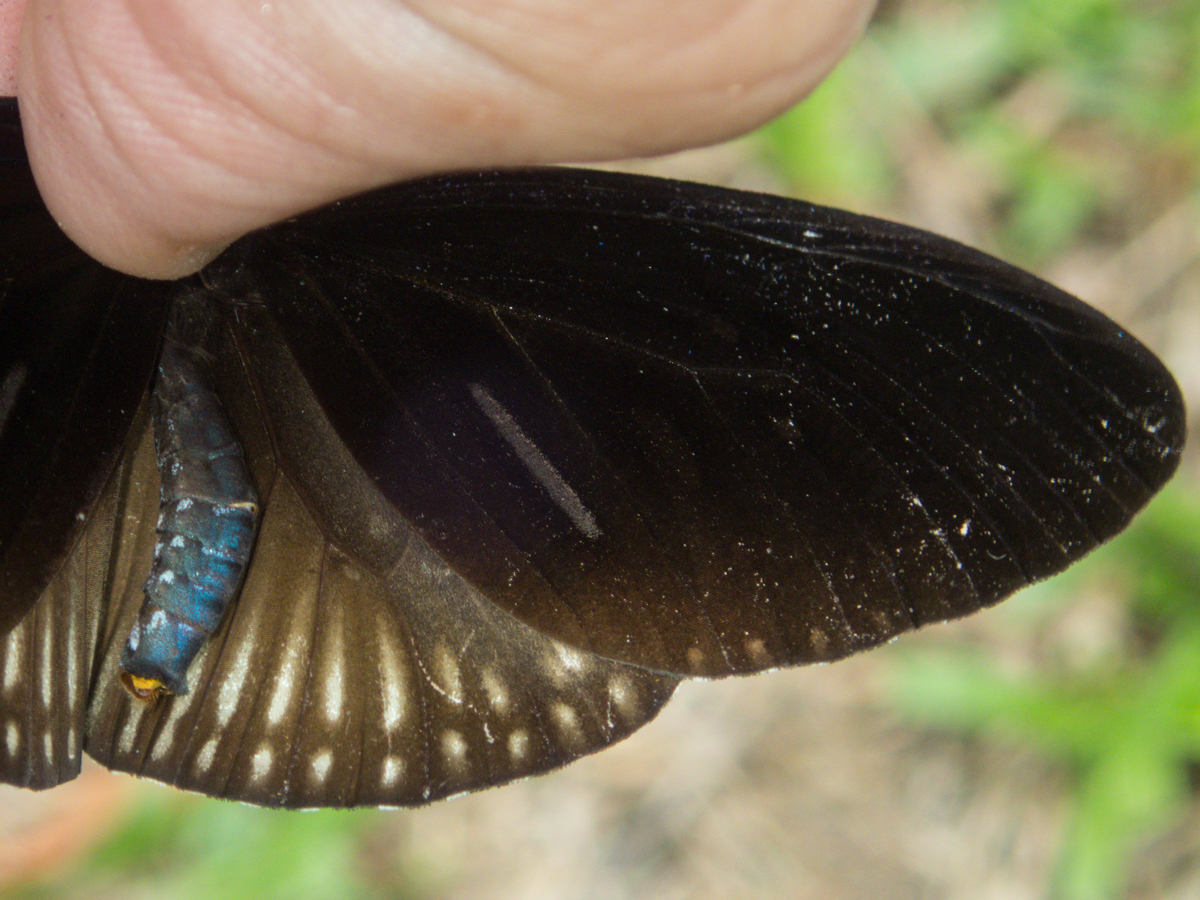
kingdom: Animalia
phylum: Arthropoda
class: Insecta
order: Lepidoptera
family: Nymphalidae
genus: Euploea
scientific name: Euploea eyndhovii
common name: Striped black crow butterfly
